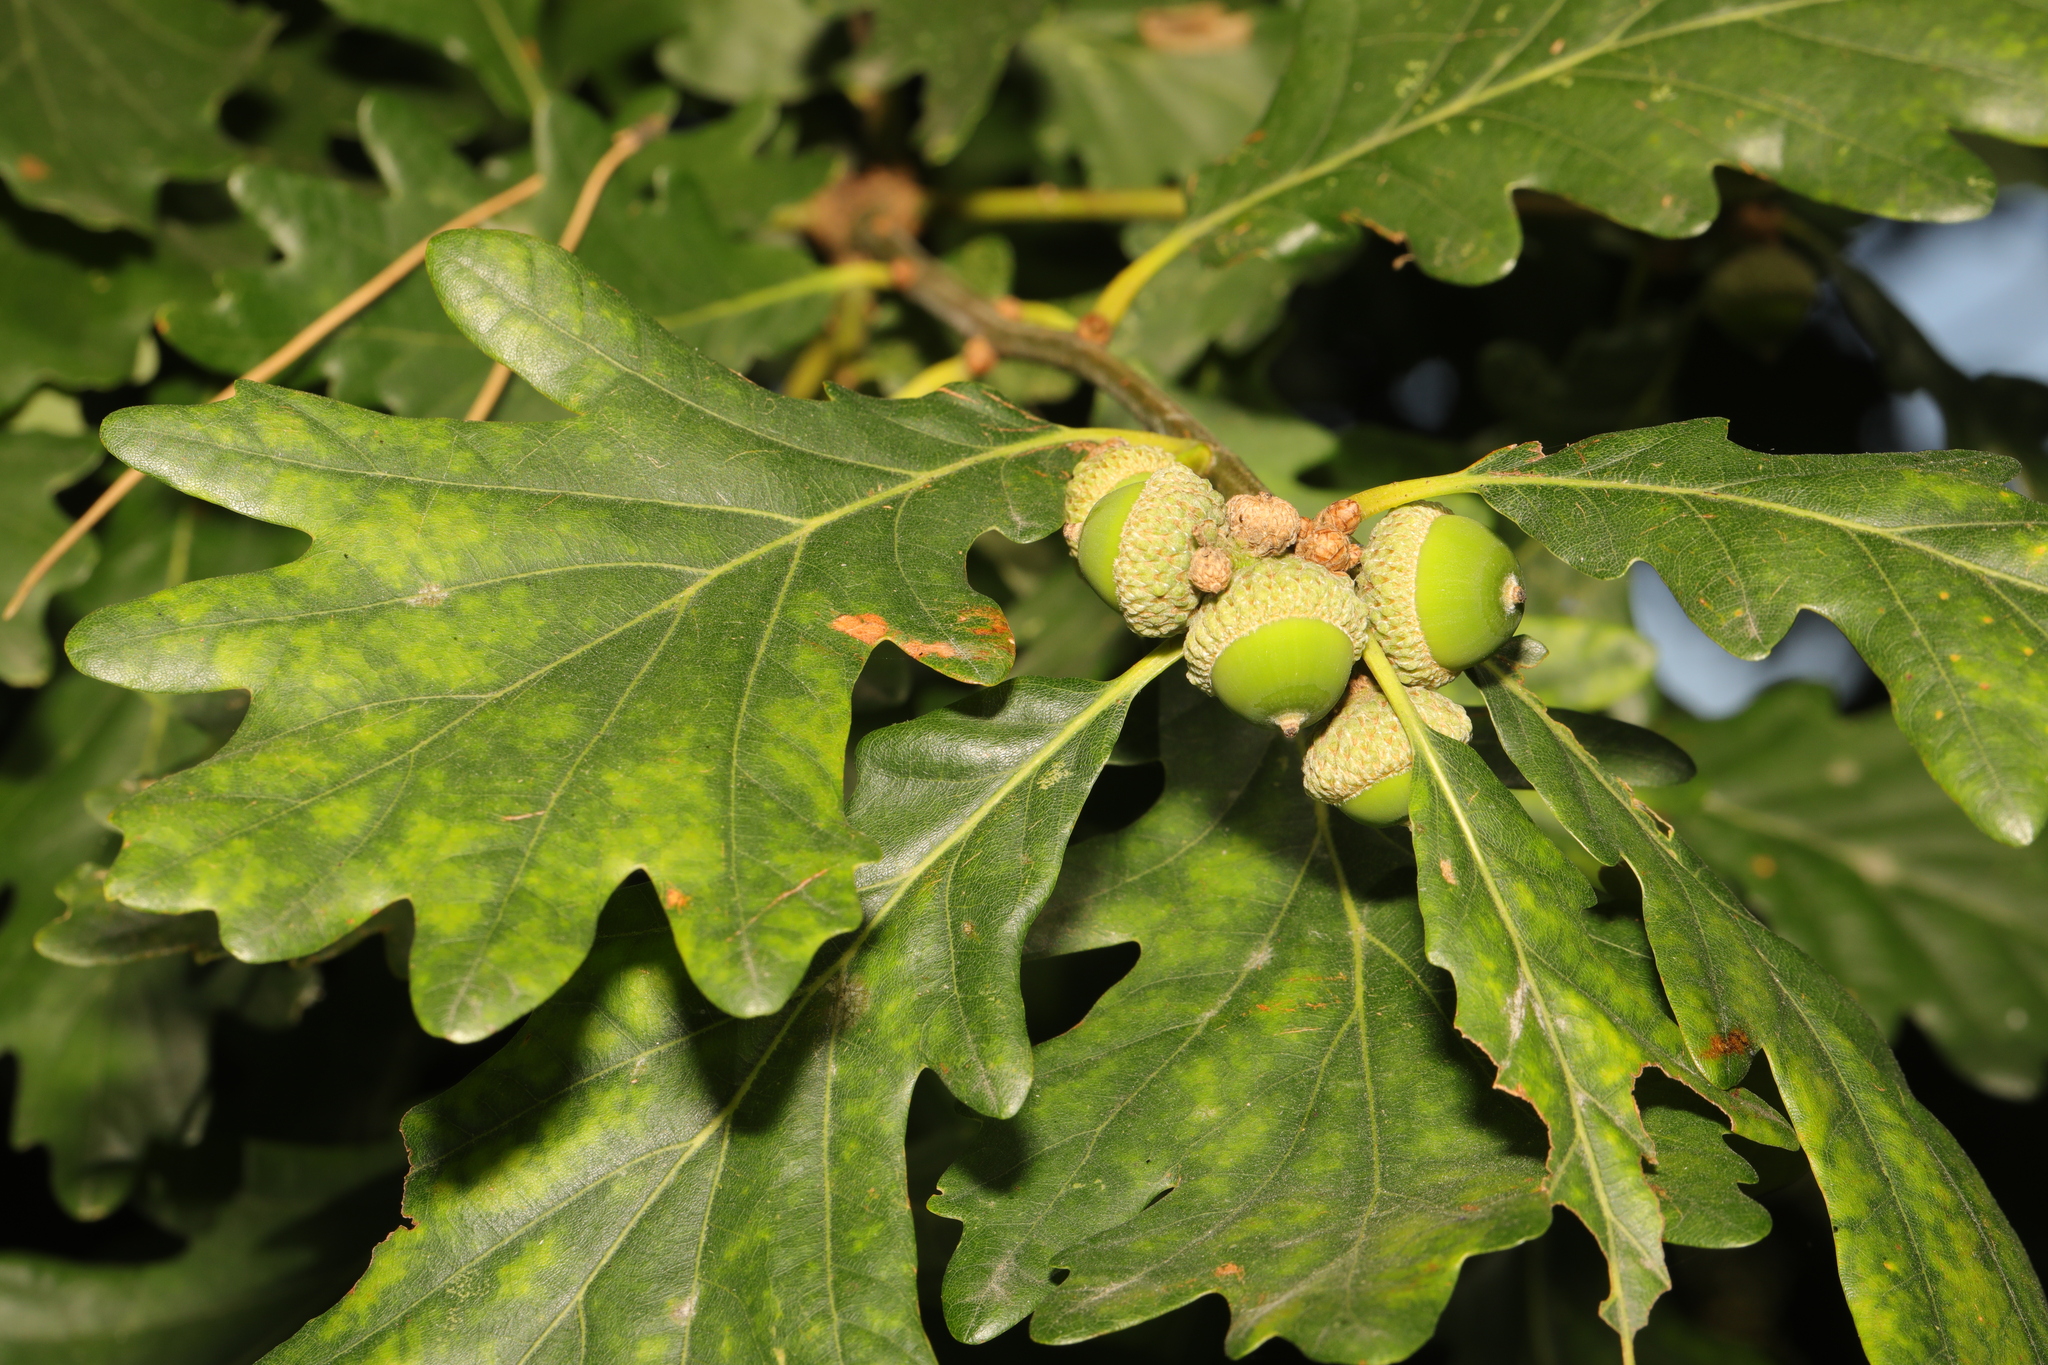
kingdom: Plantae
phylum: Tracheophyta
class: Magnoliopsida
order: Fagales
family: Fagaceae
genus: Quercus
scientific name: Quercus petraea
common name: Sessile oak
